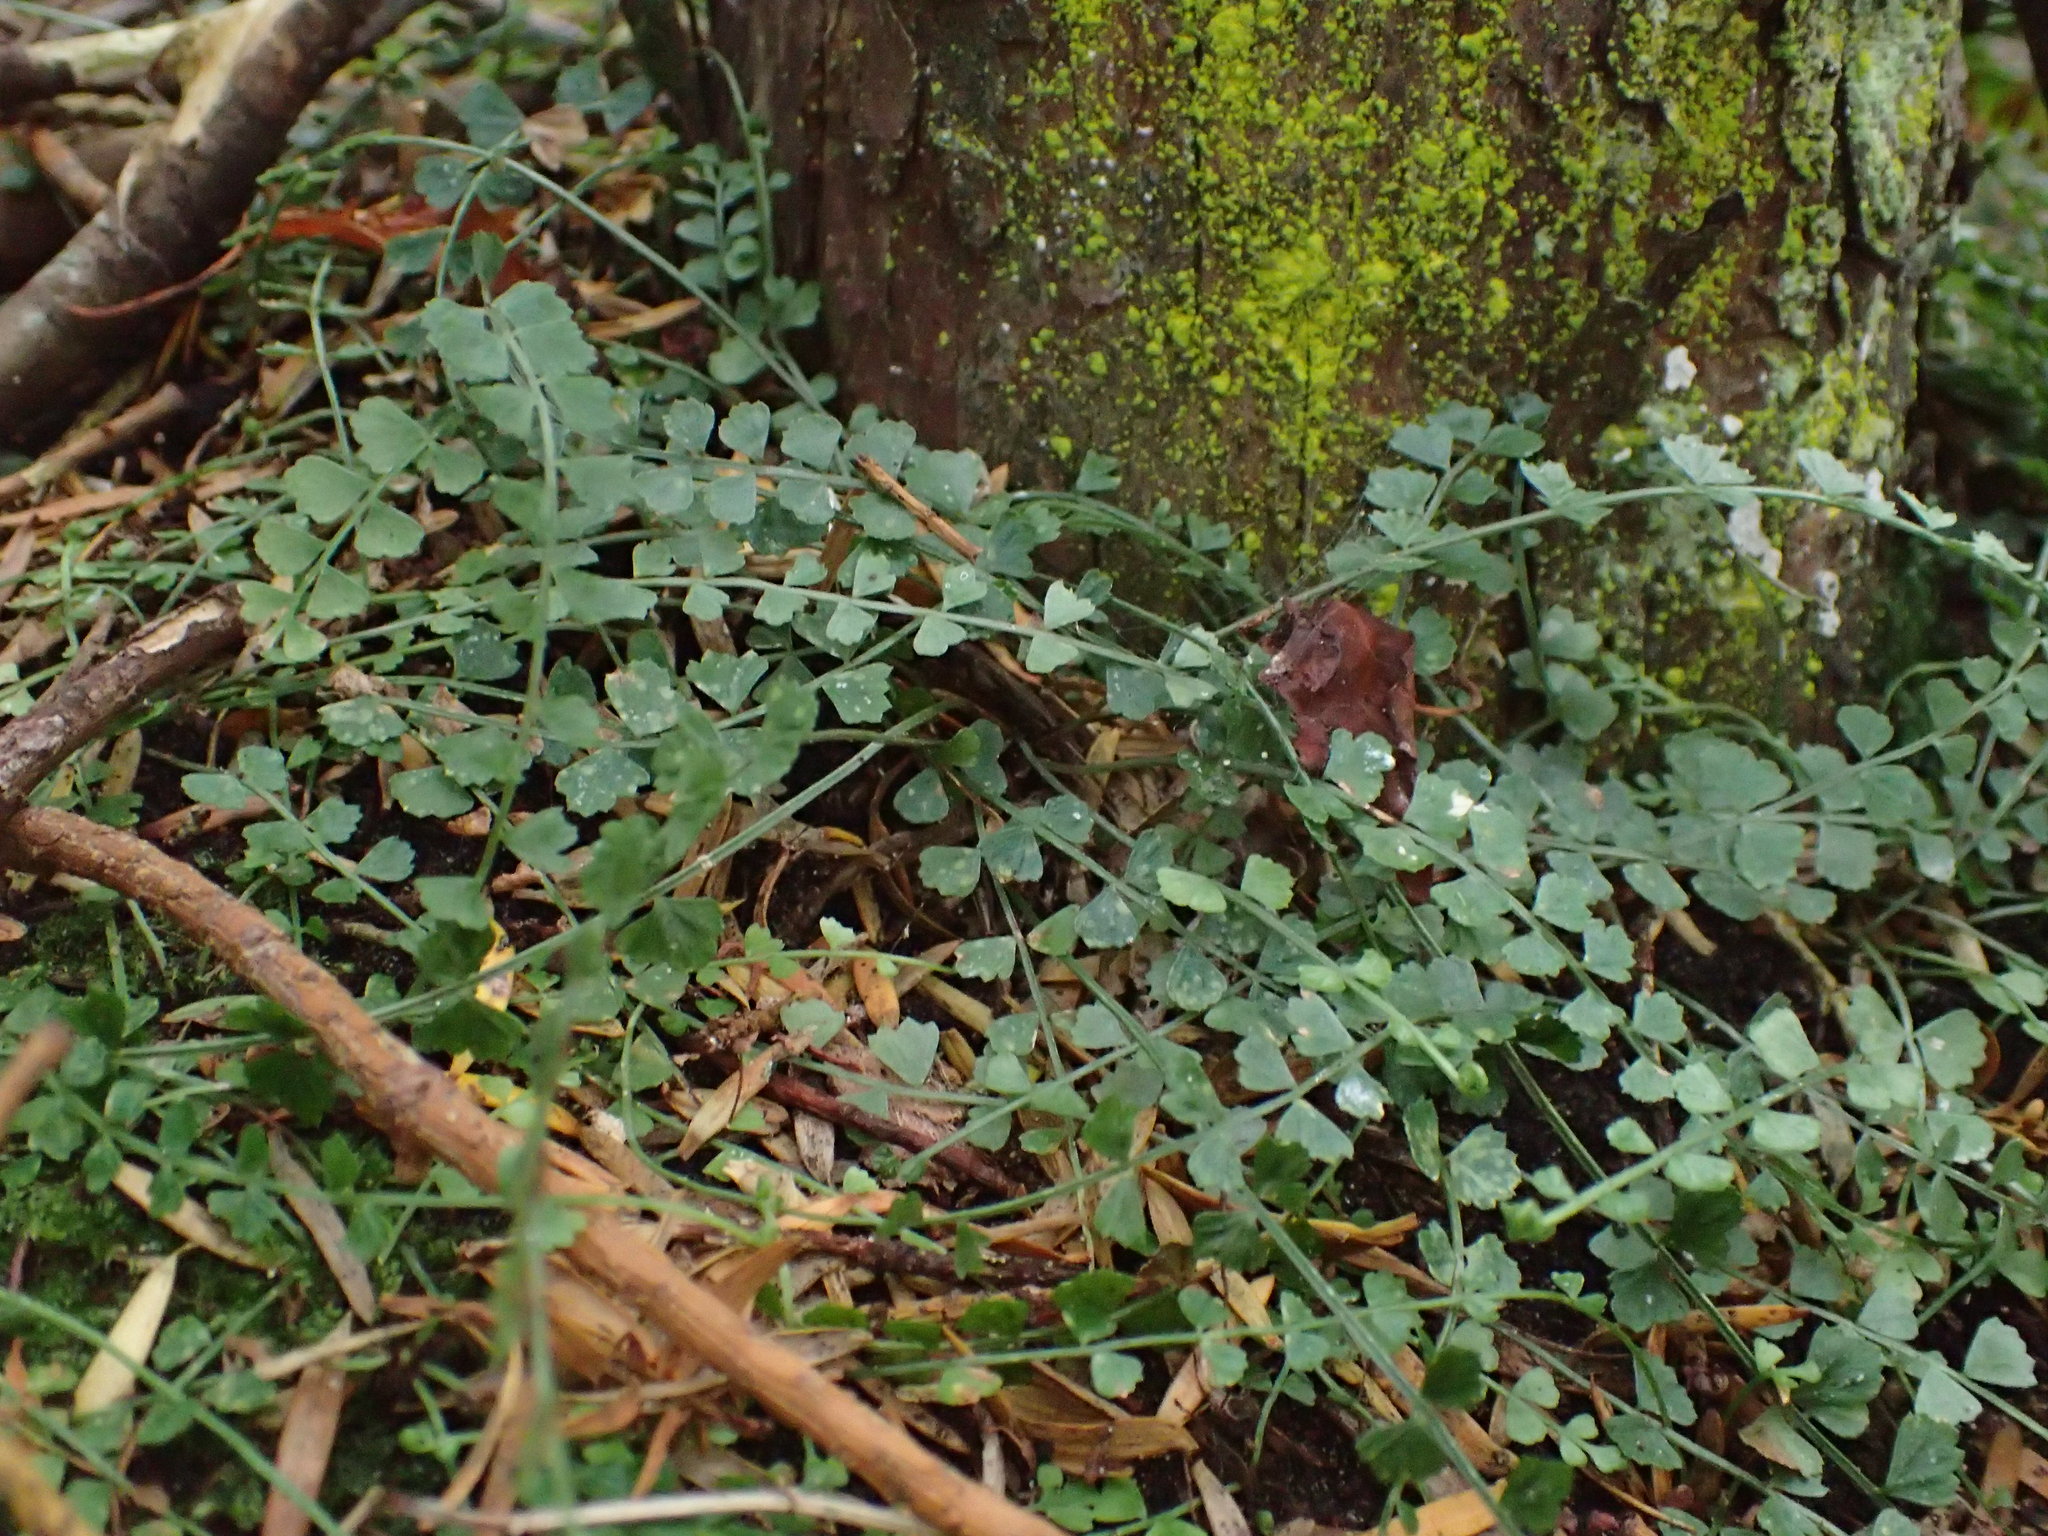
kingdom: Plantae
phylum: Tracheophyta
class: Polypodiopsida
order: Polypodiales
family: Aspleniaceae
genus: Asplenium
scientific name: Asplenium flabellifolium
